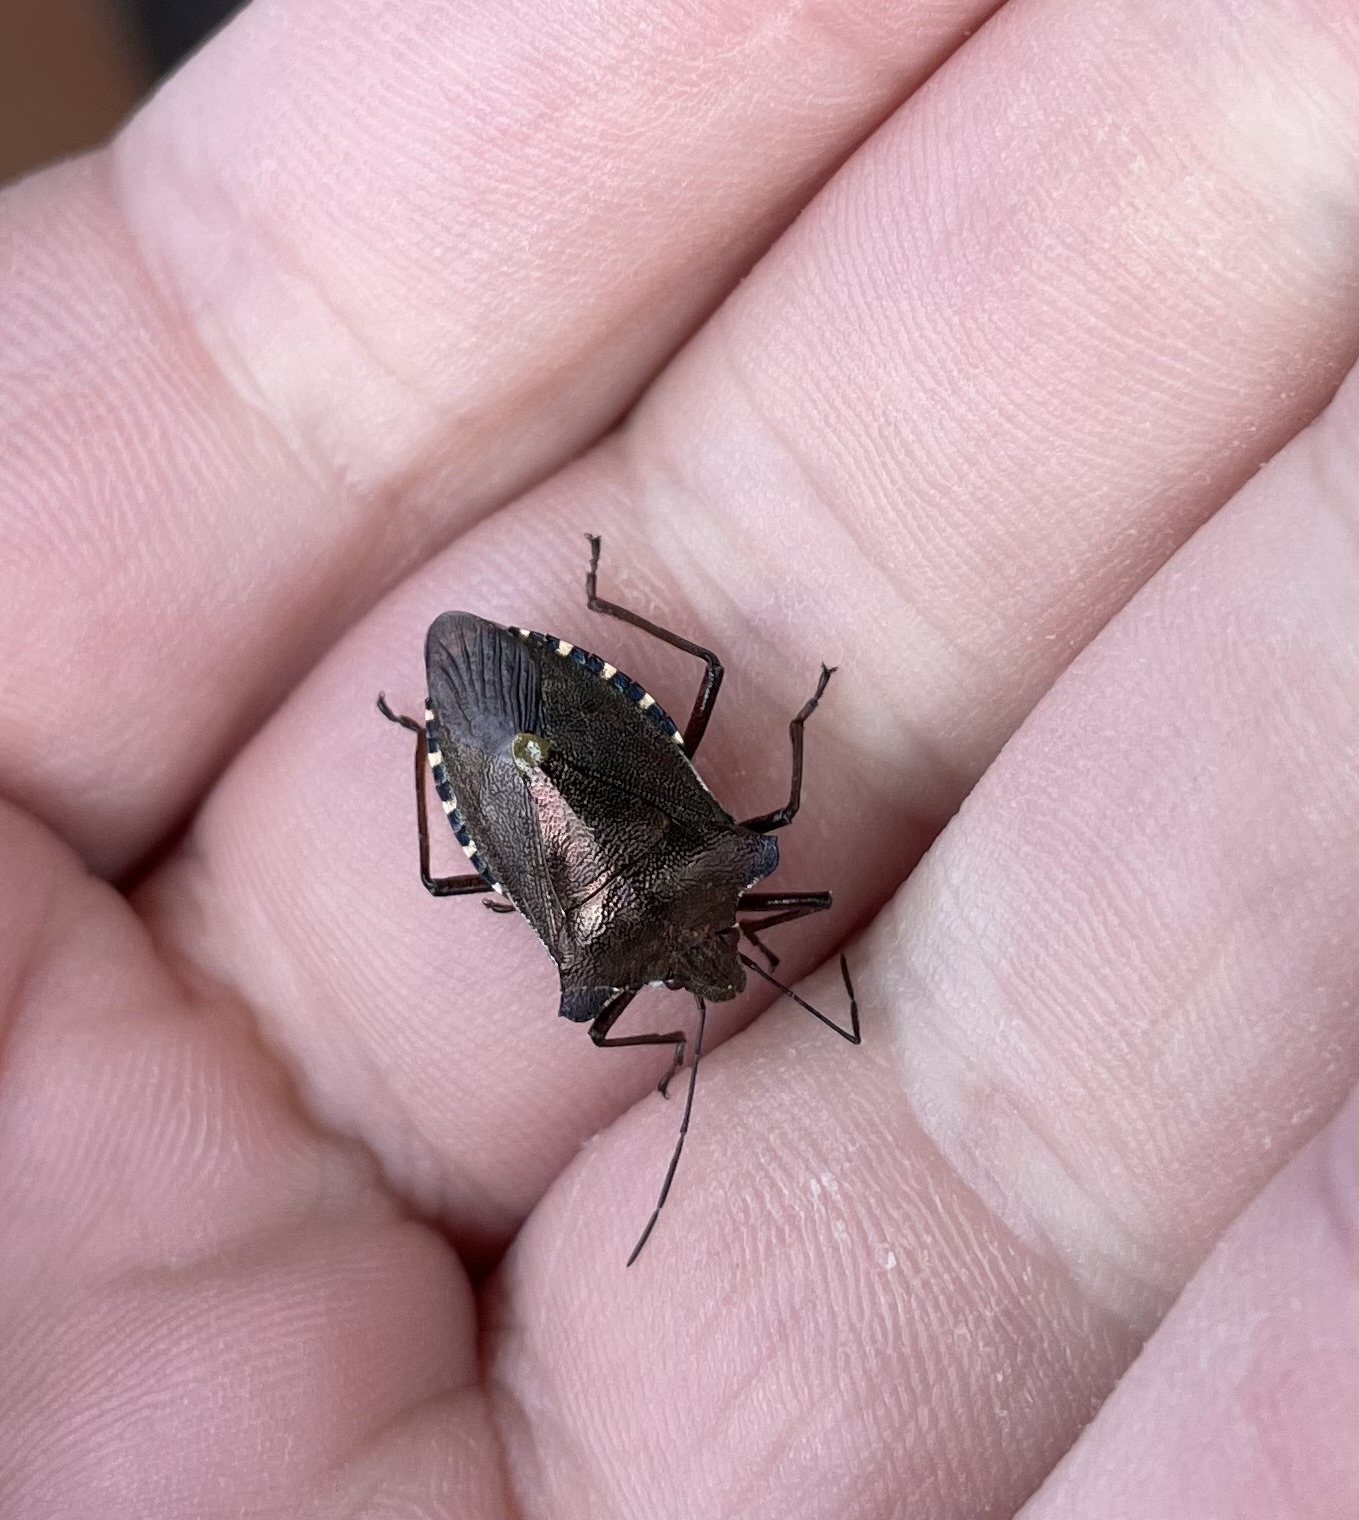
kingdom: Animalia
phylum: Arthropoda
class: Insecta
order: Hemiptera
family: Pentatomidae
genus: Pentatoma
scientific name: Pentatoma rufipes
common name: Forest bug
